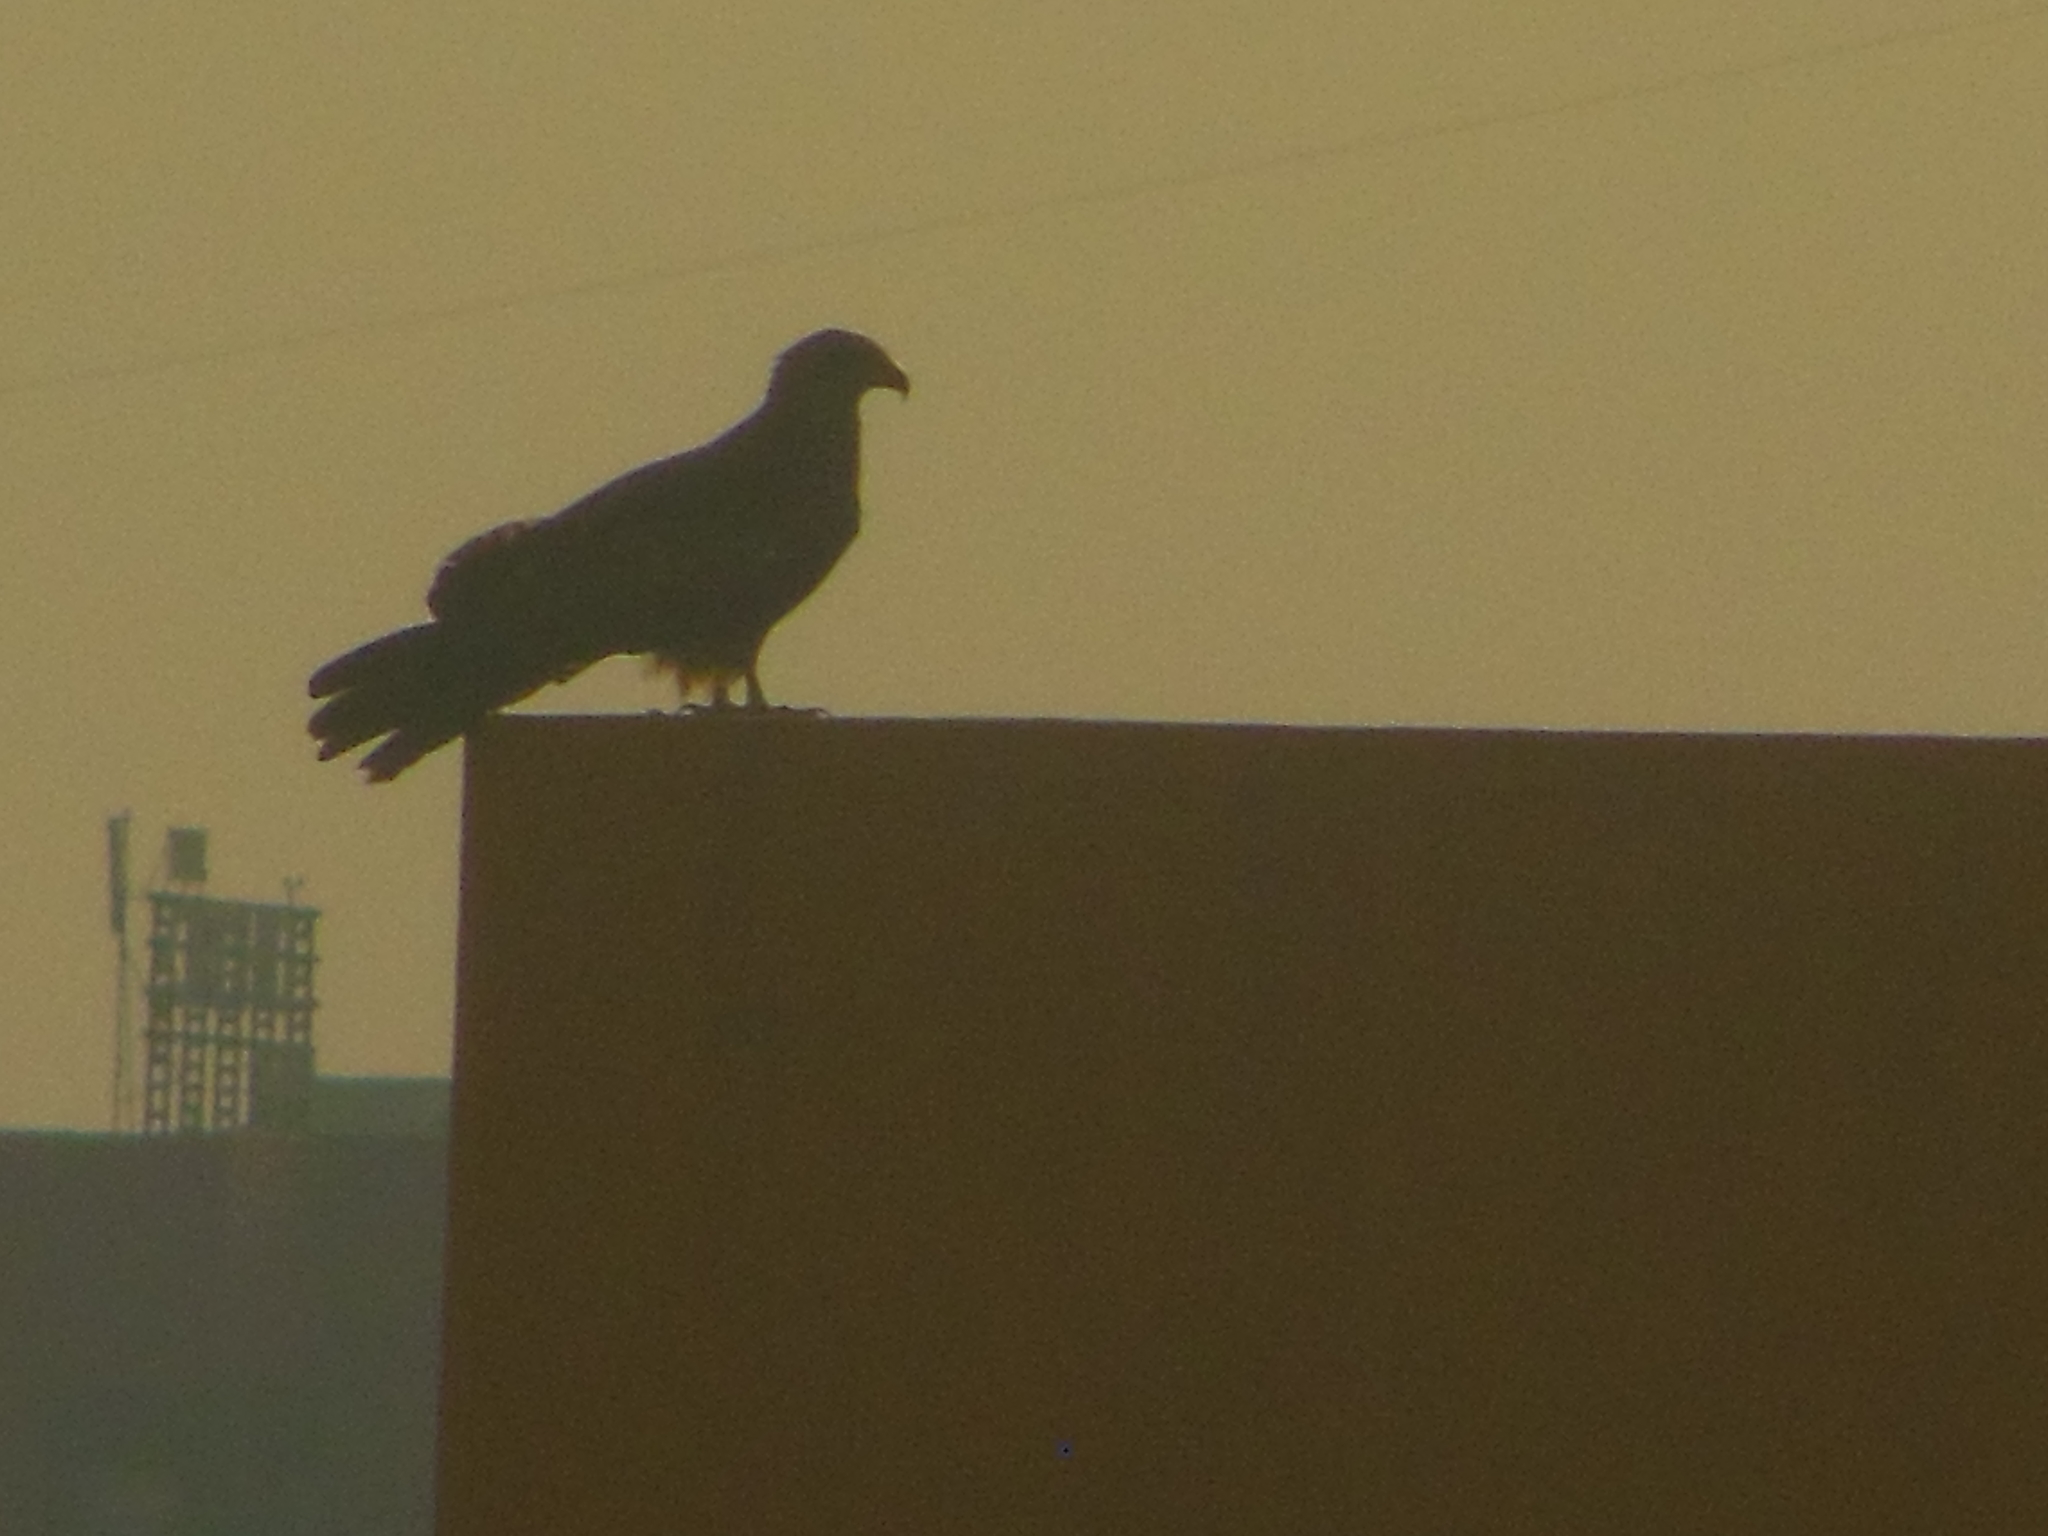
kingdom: Animalia
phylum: Chordata
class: Aves
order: Accipitriformes
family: Accipitridae
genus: Milvus
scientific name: Milvus migrans
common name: Black kite
